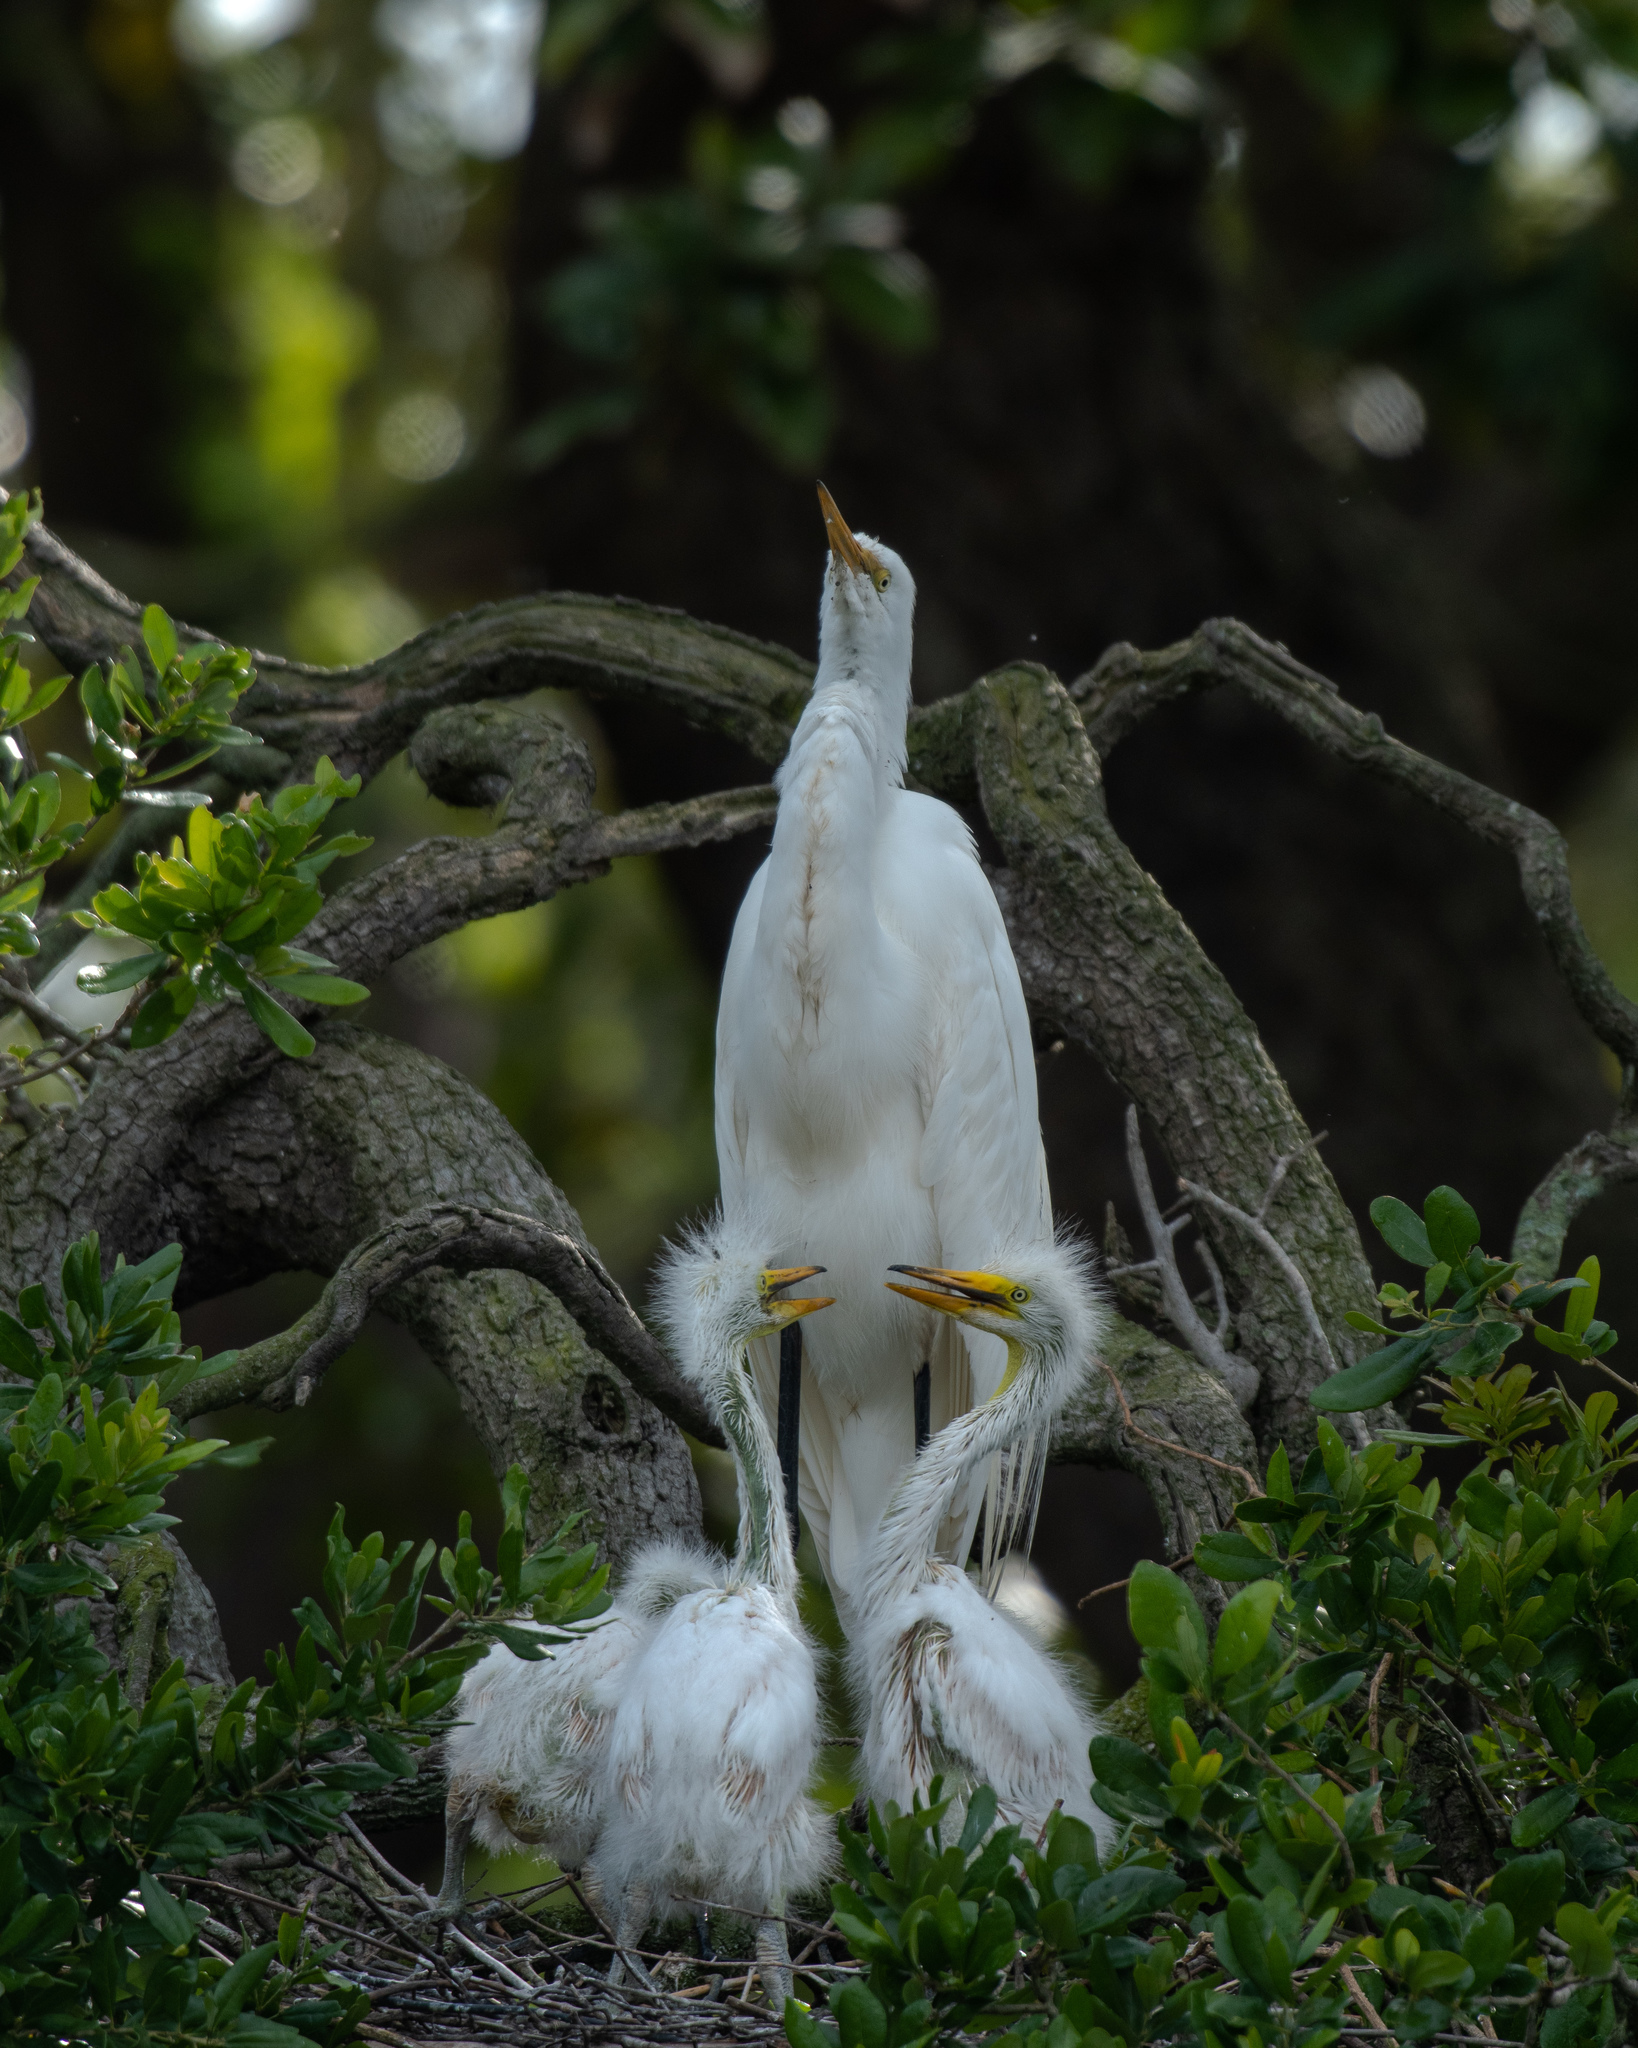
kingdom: Animalia
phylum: Chordata
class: Aves
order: Pelecaniformes
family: Ardeidae
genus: Ardea
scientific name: Ardea alba
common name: Great egret
